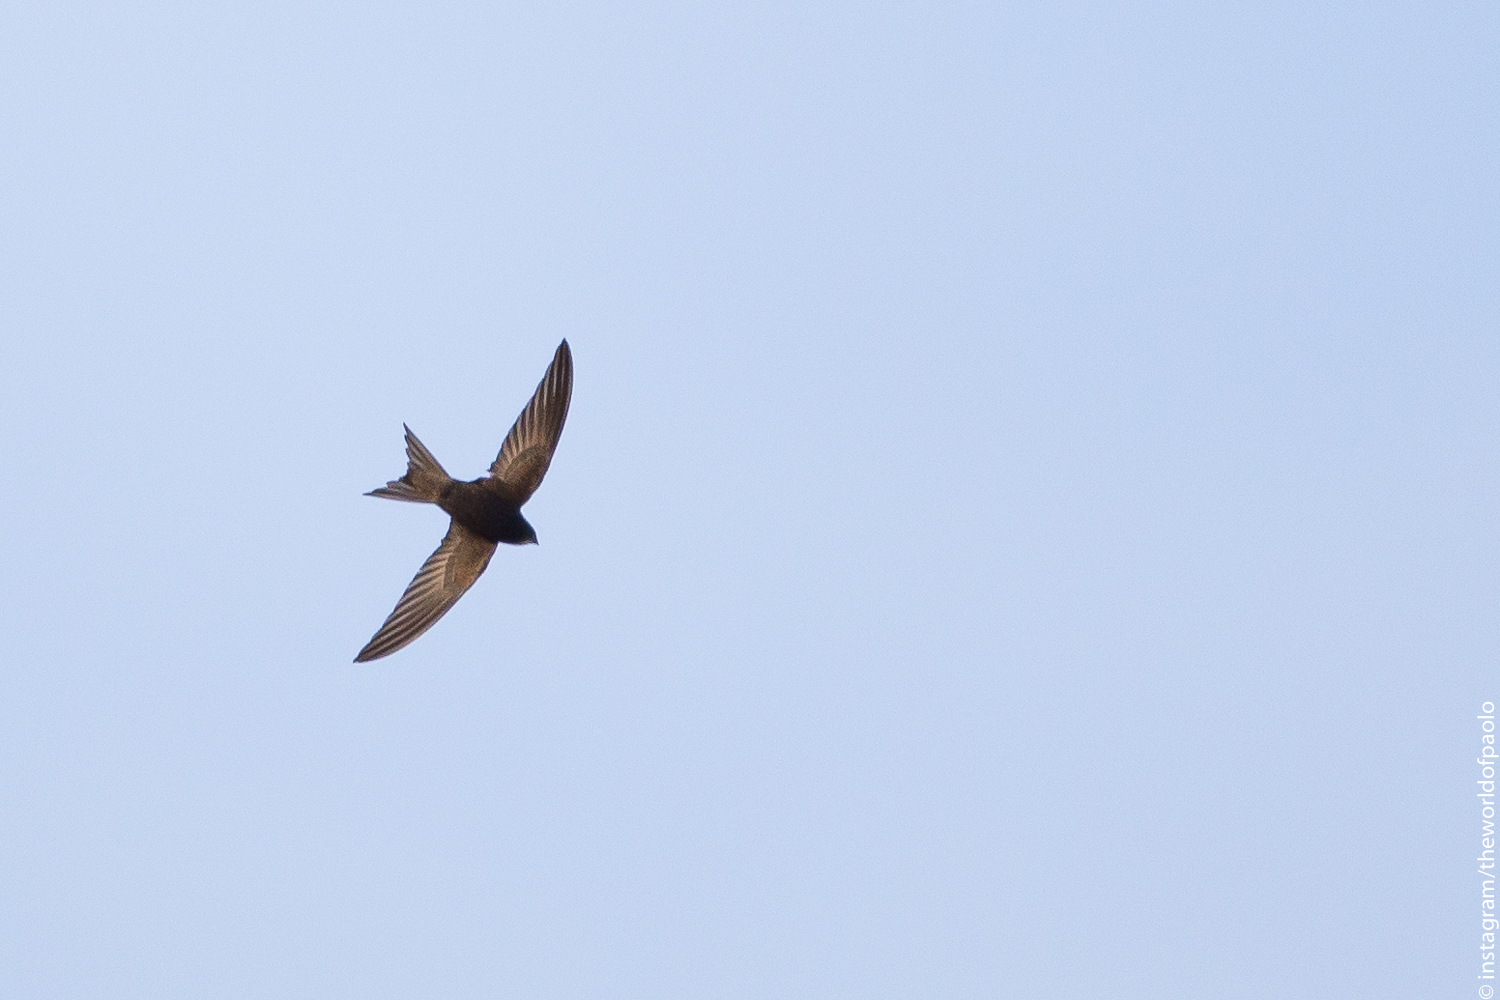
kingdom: Animalia
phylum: Chordata
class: Aves
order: Apodiformes
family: Apodidae
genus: Apus
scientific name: Apus apus
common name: Common swift
